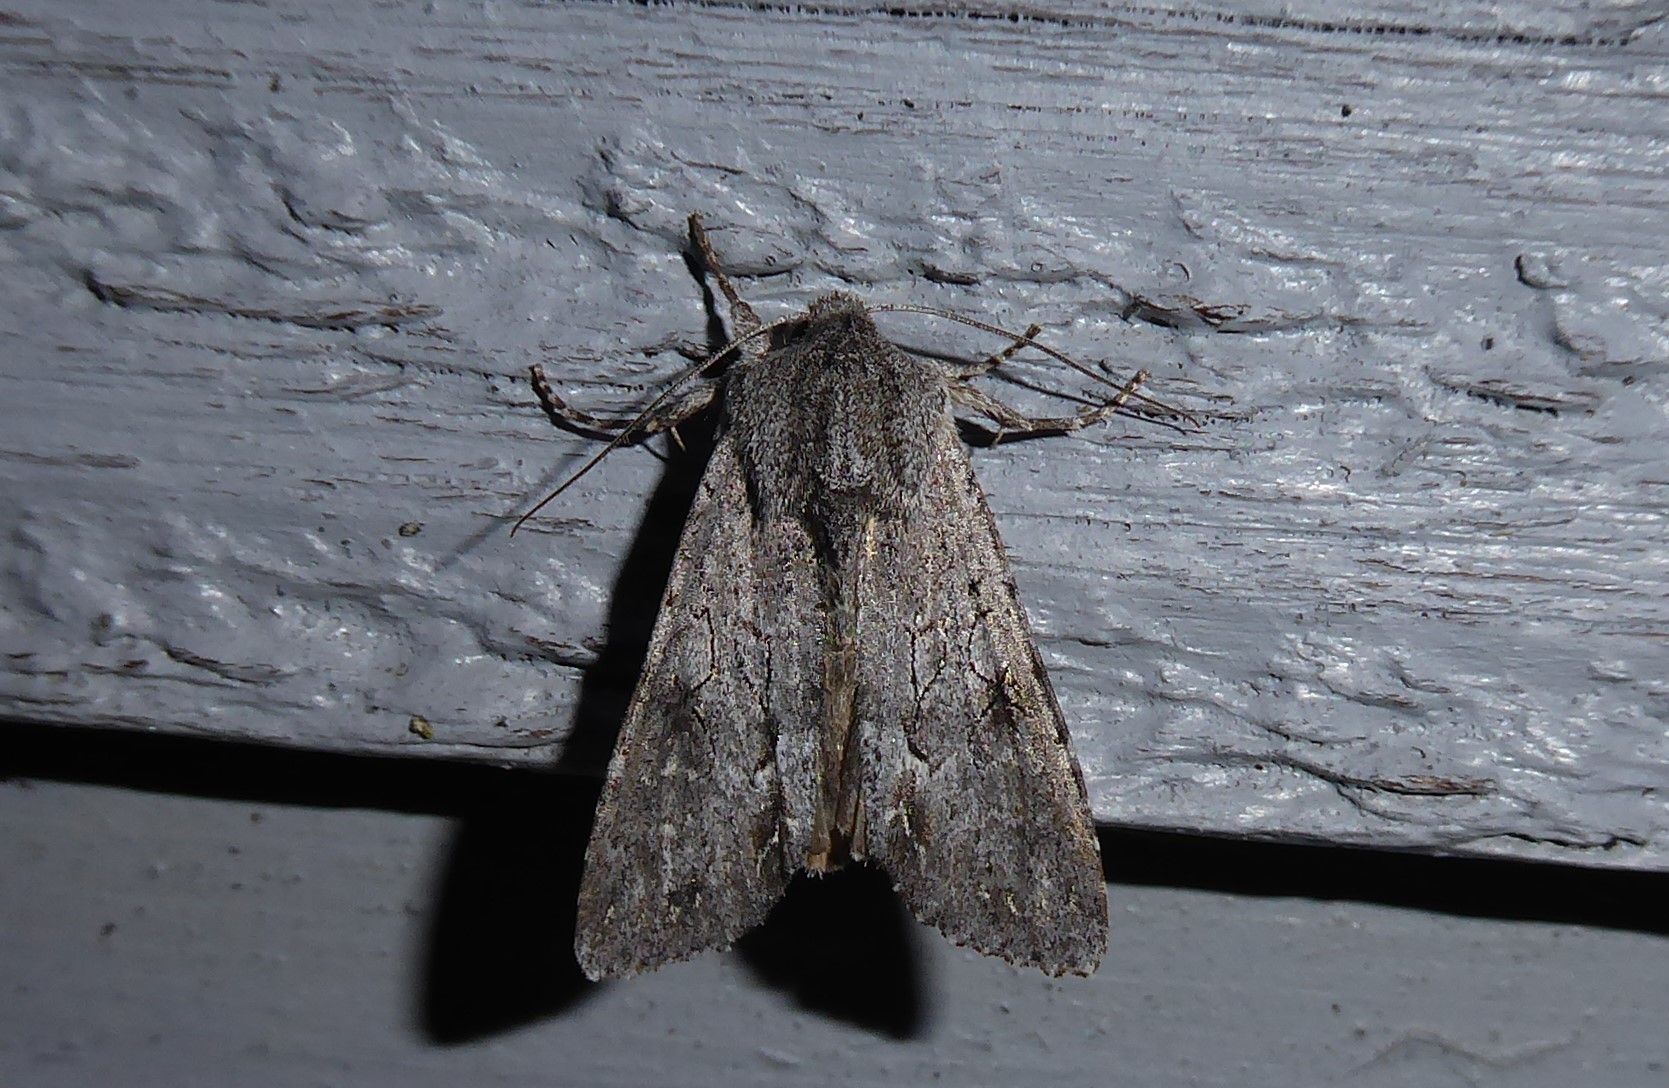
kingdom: Animalia
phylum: Arthropoda
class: Insecta
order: Lepidoptera
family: Noctuidae
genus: Ichneutica
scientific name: Ichneutica
